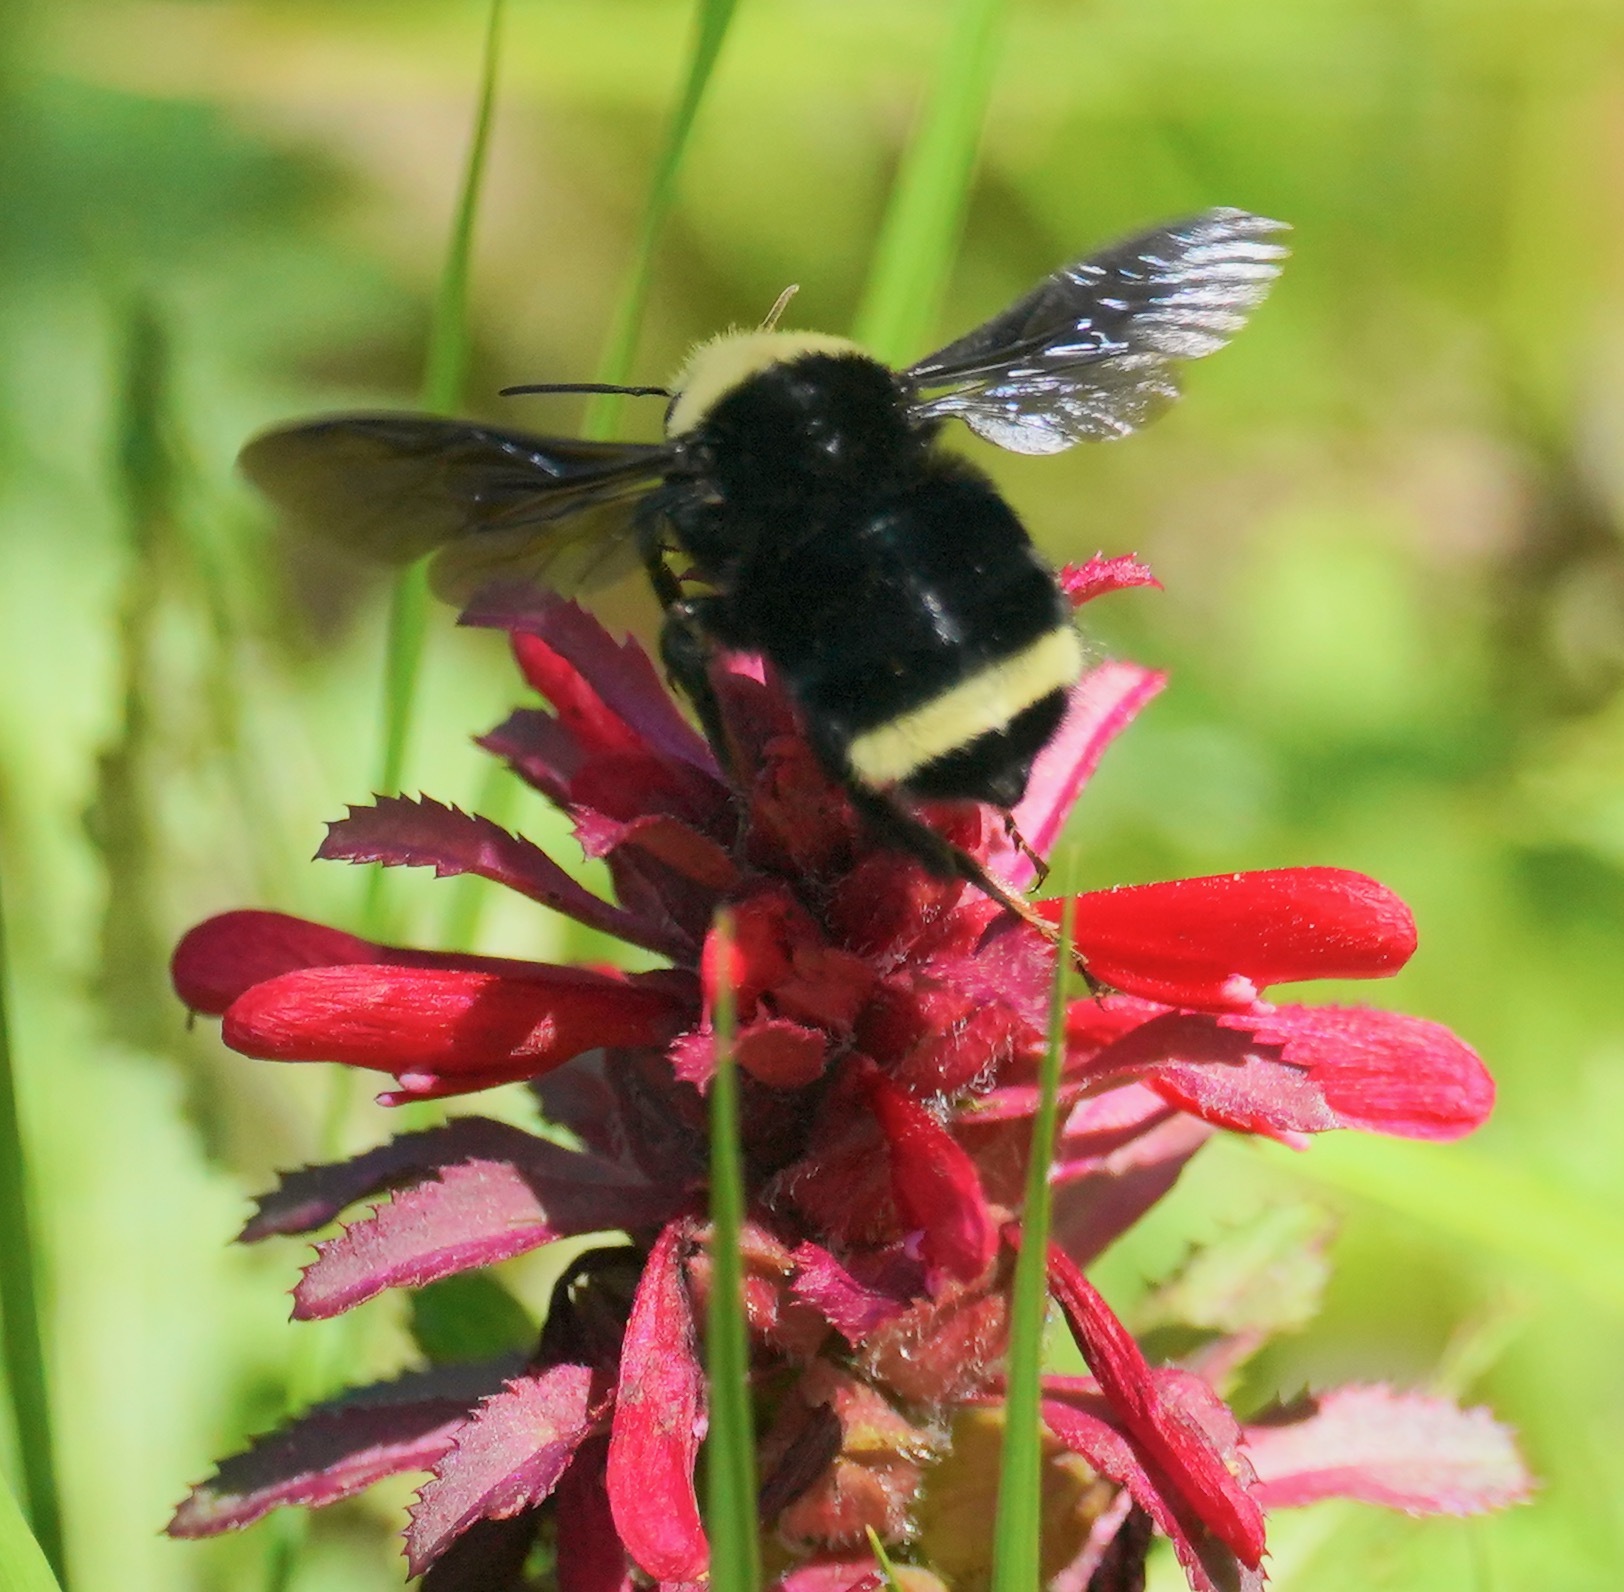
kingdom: Animalia
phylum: Arthropoda
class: Insecta
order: Hymenoptera
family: Apidae
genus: Bombus
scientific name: Bombus vosnesenskii
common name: Vosnesensky bumble bee
